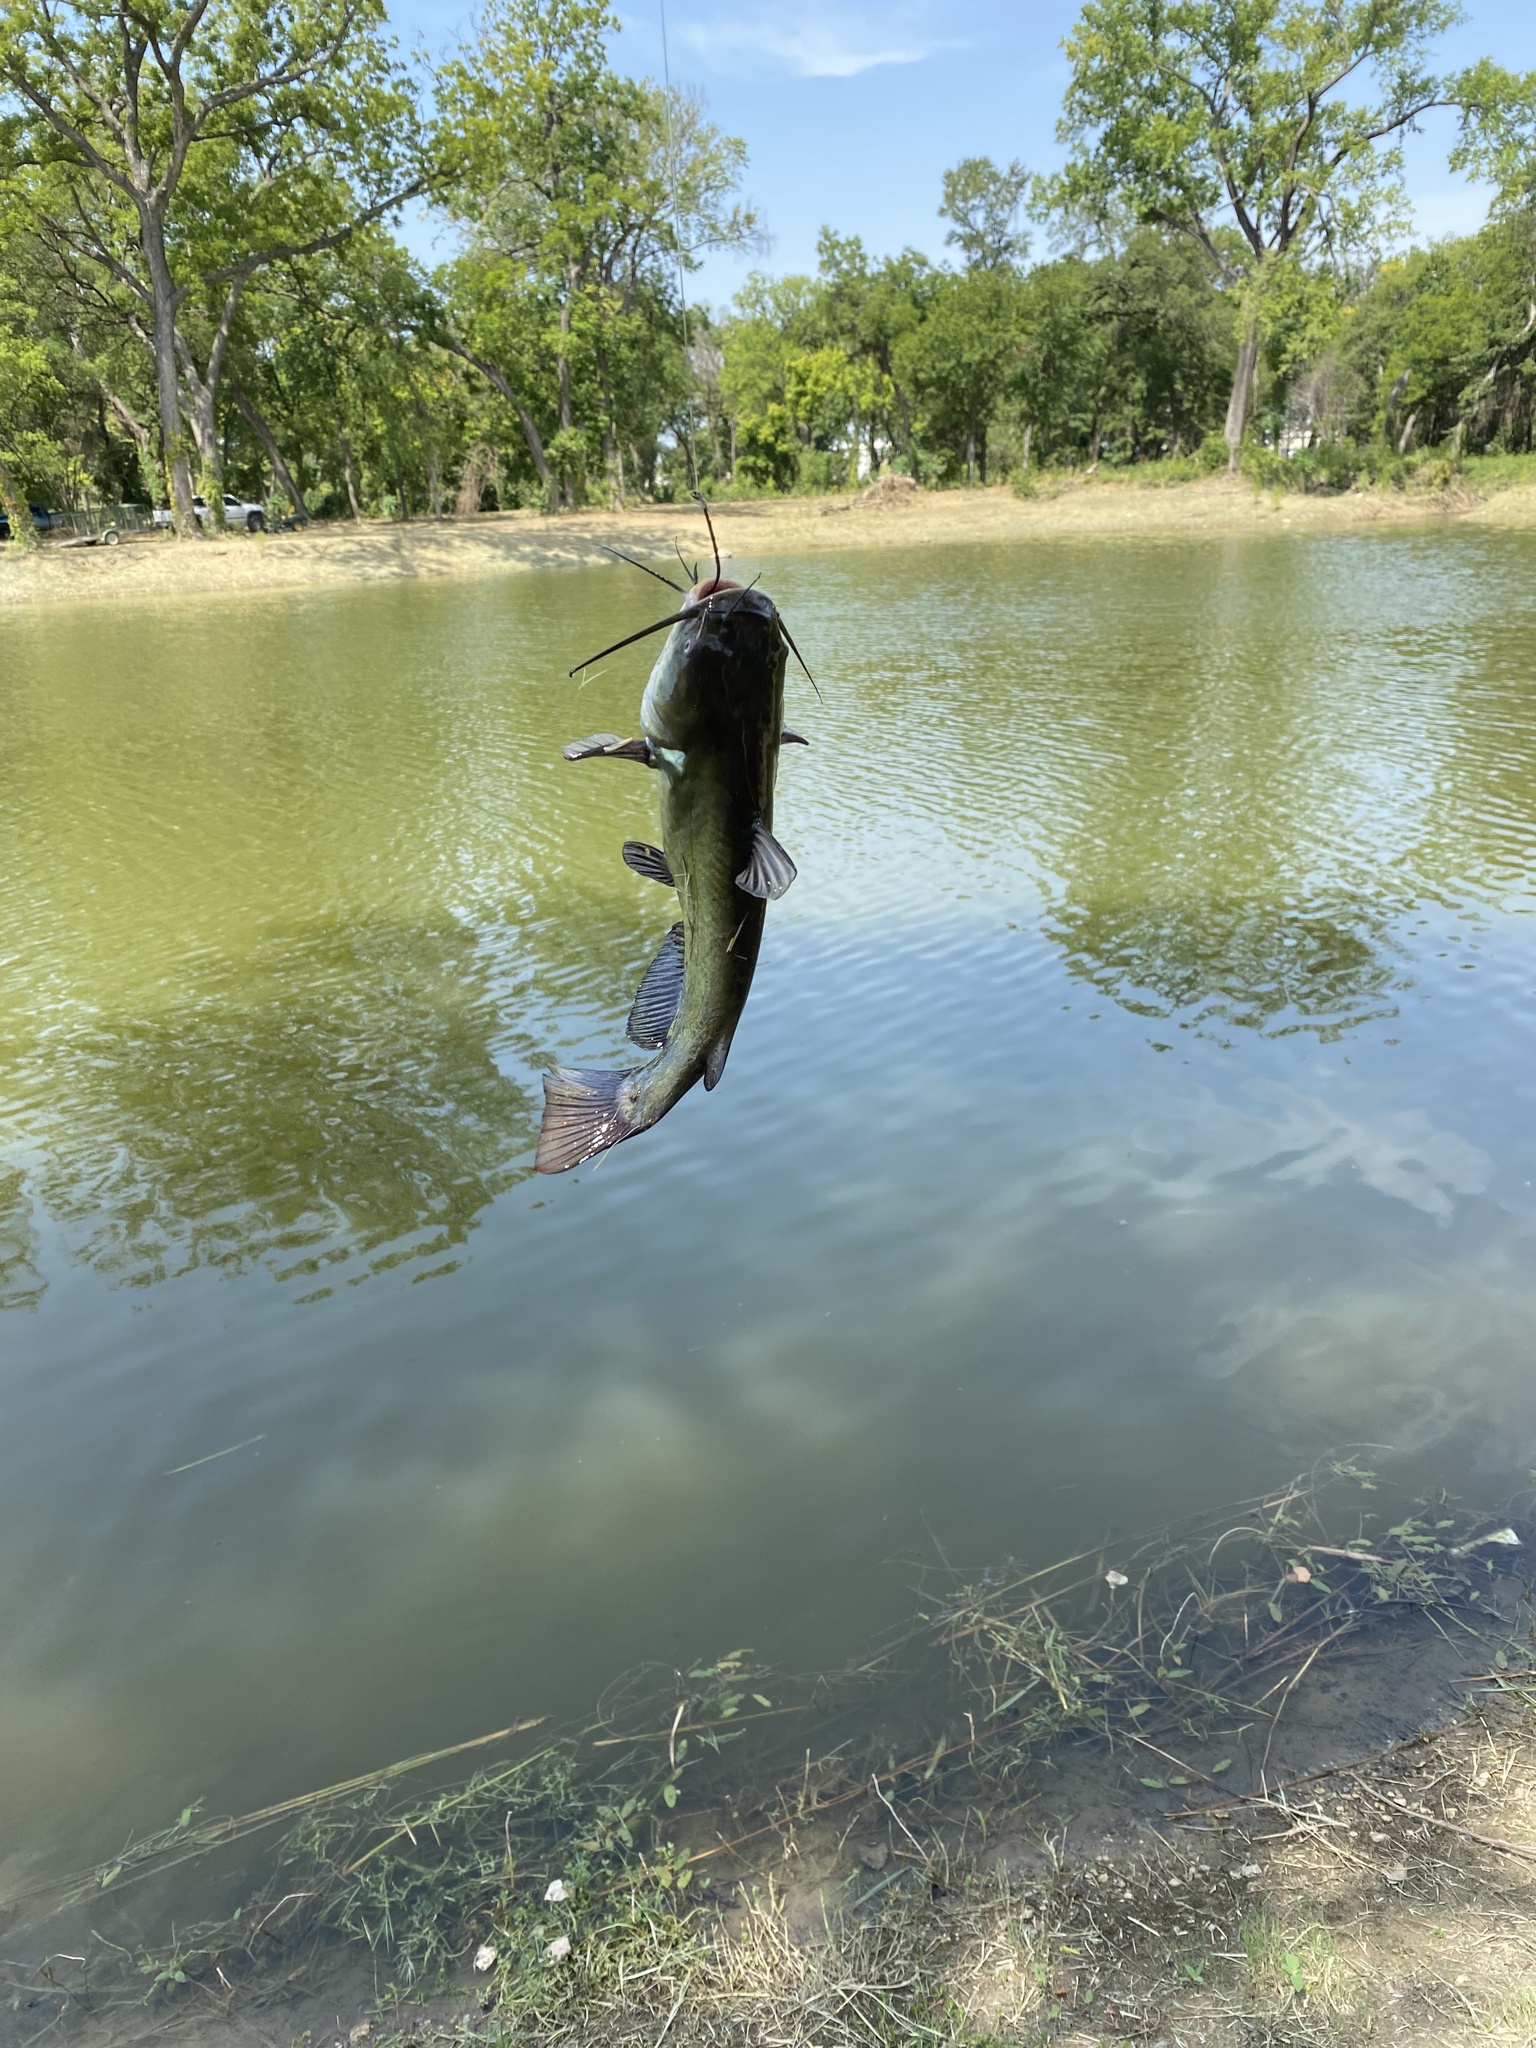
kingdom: Animalia
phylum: Chordata
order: Siluriformes
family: Ictaluridae
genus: Ameiurus
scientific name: Ameiurus melas
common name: Black bullhead
